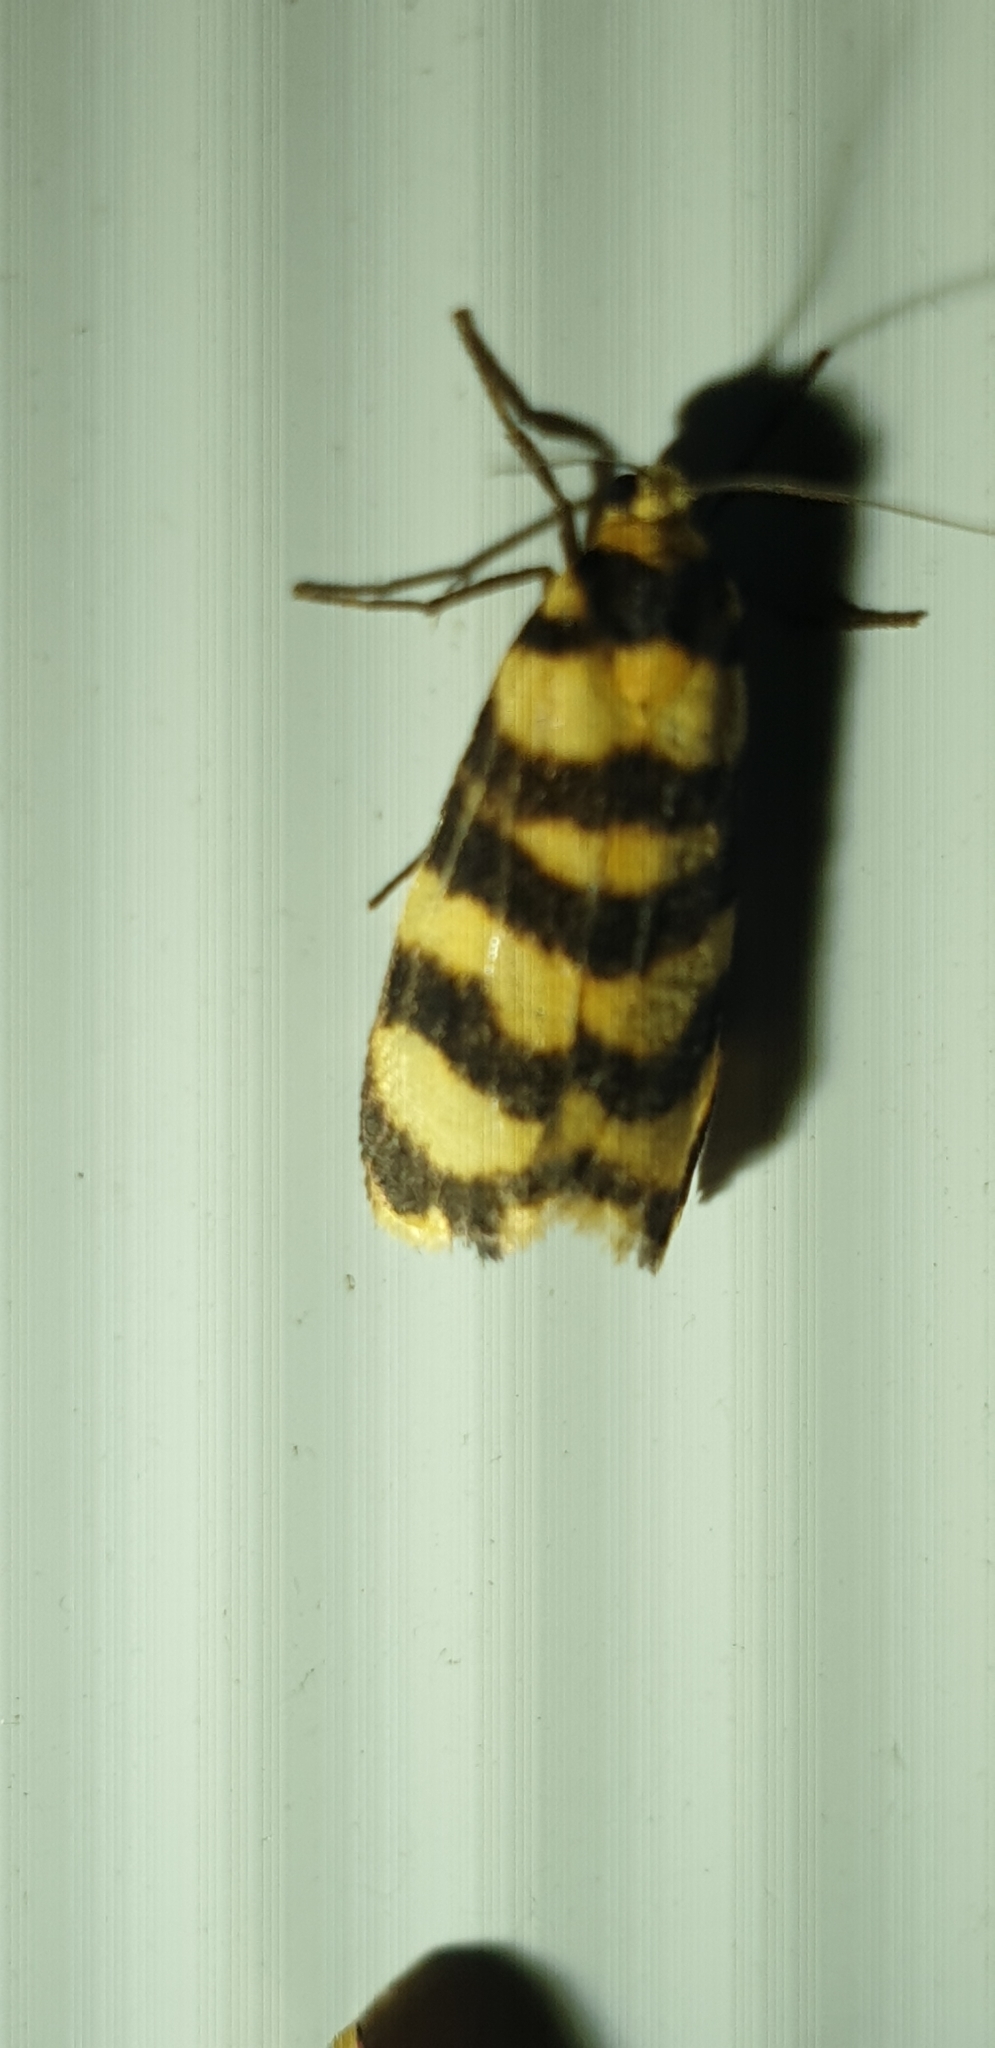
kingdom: Animalia
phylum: Arthropoda
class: Insecta
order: Lepidoptera
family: Erebidae
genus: Scaptesyle
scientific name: Scaptesyle equidistans
